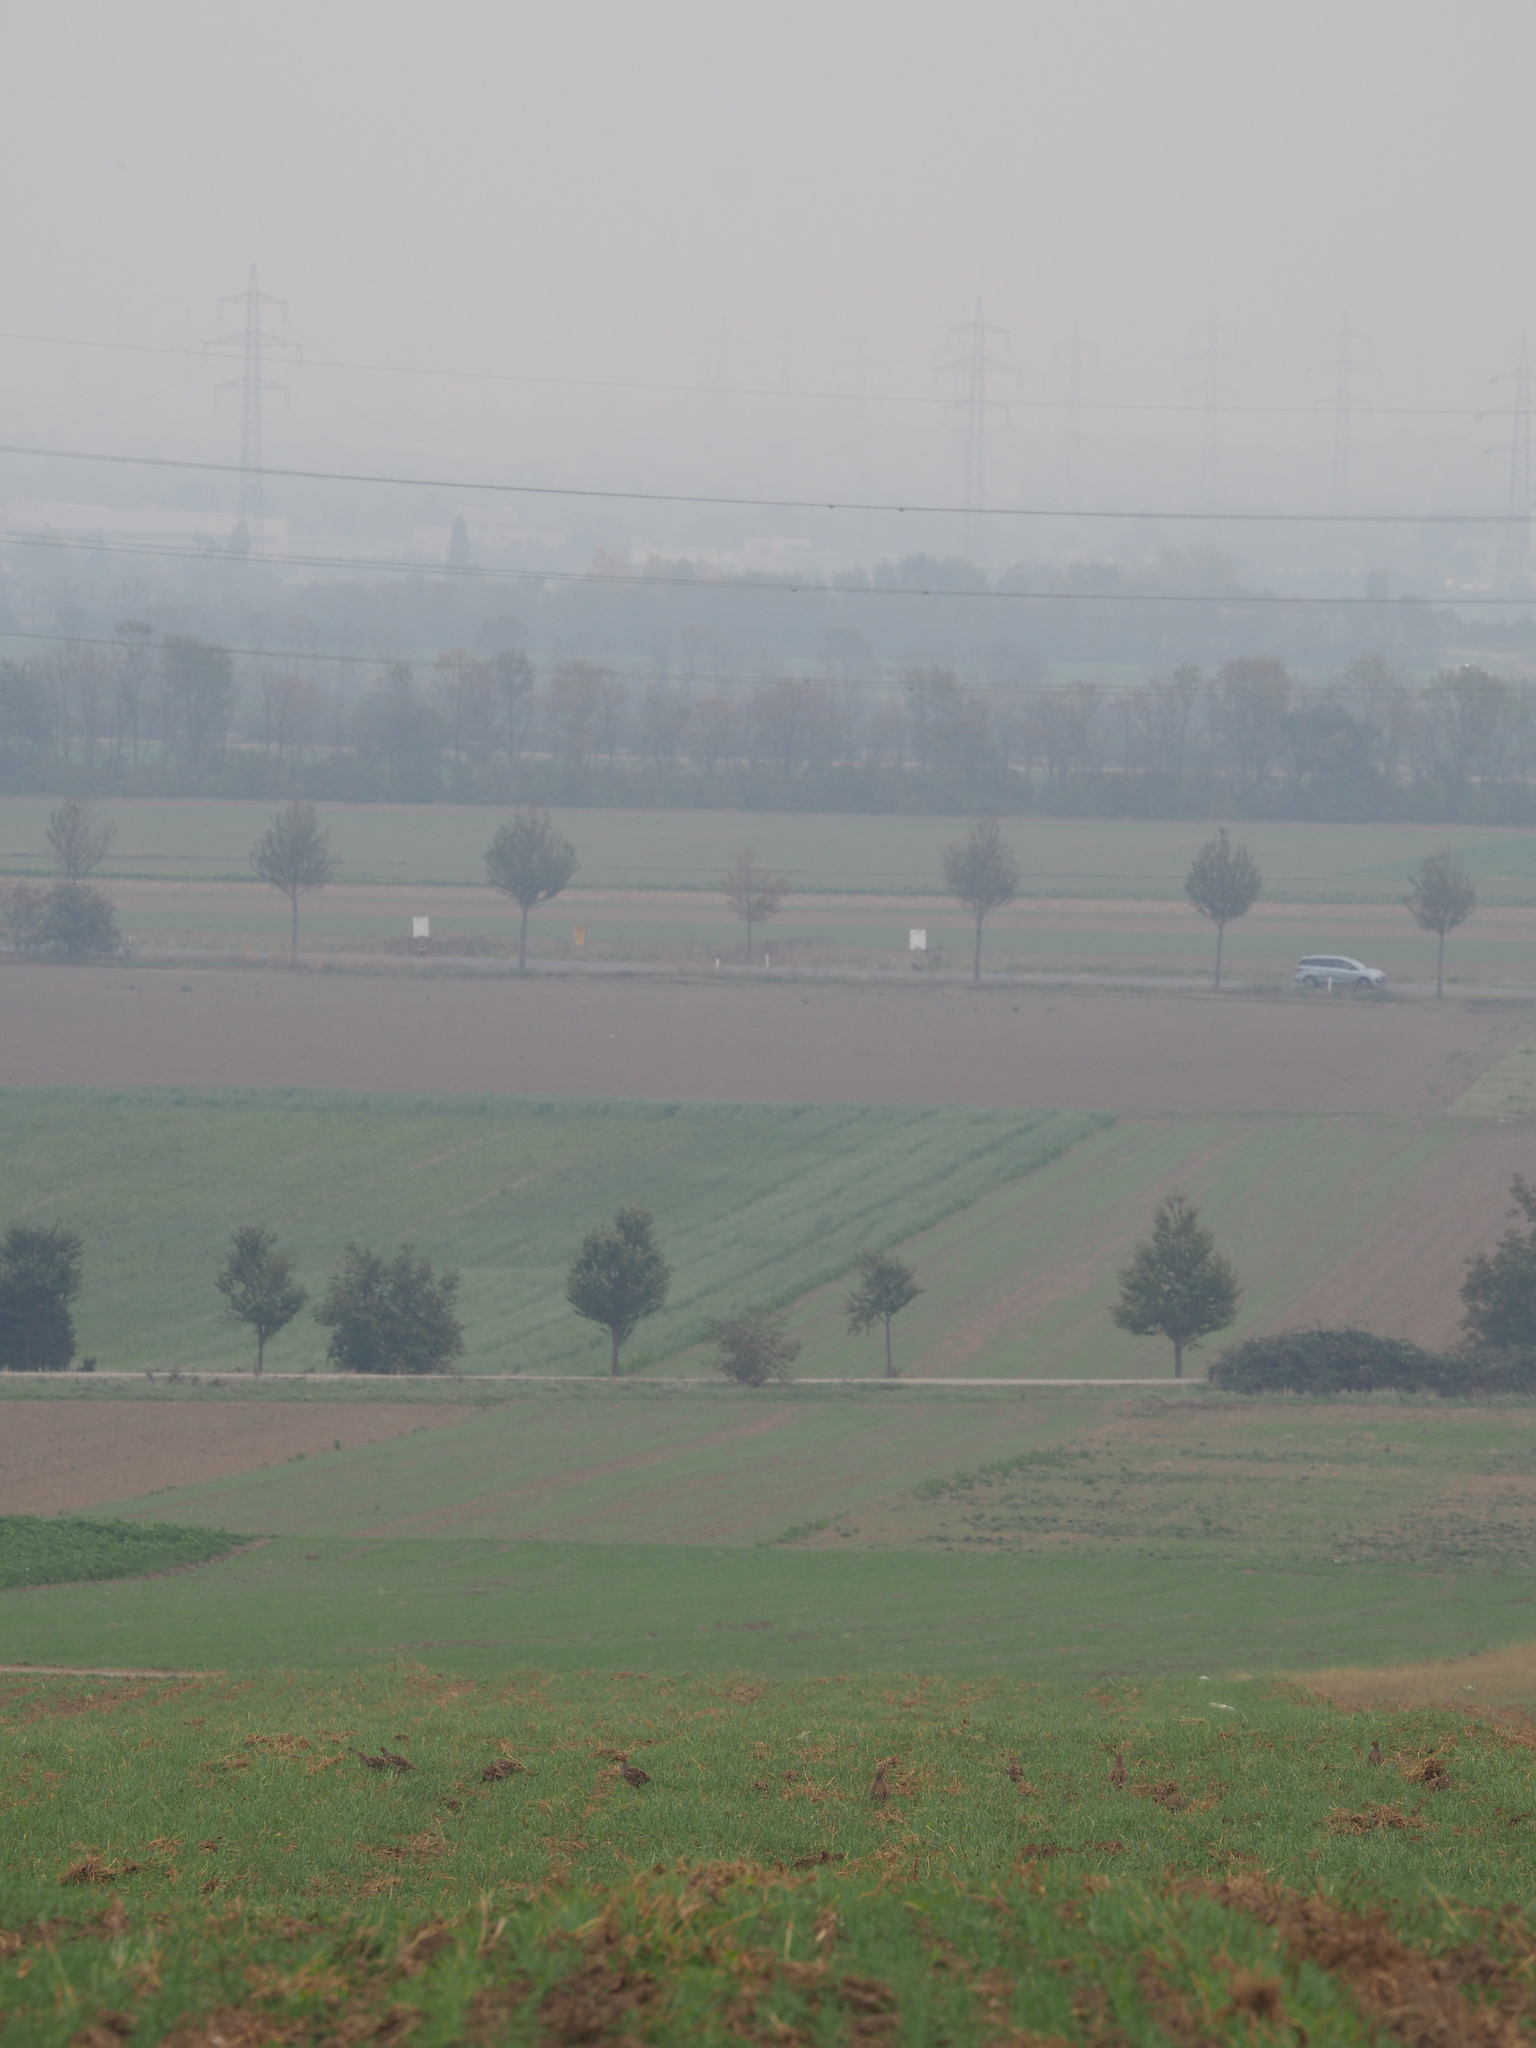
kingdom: Animalia
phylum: Chordata
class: Aves
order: Galliformes
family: Phasianidae
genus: Perdix
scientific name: Perdix perdix
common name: Grey partridge
